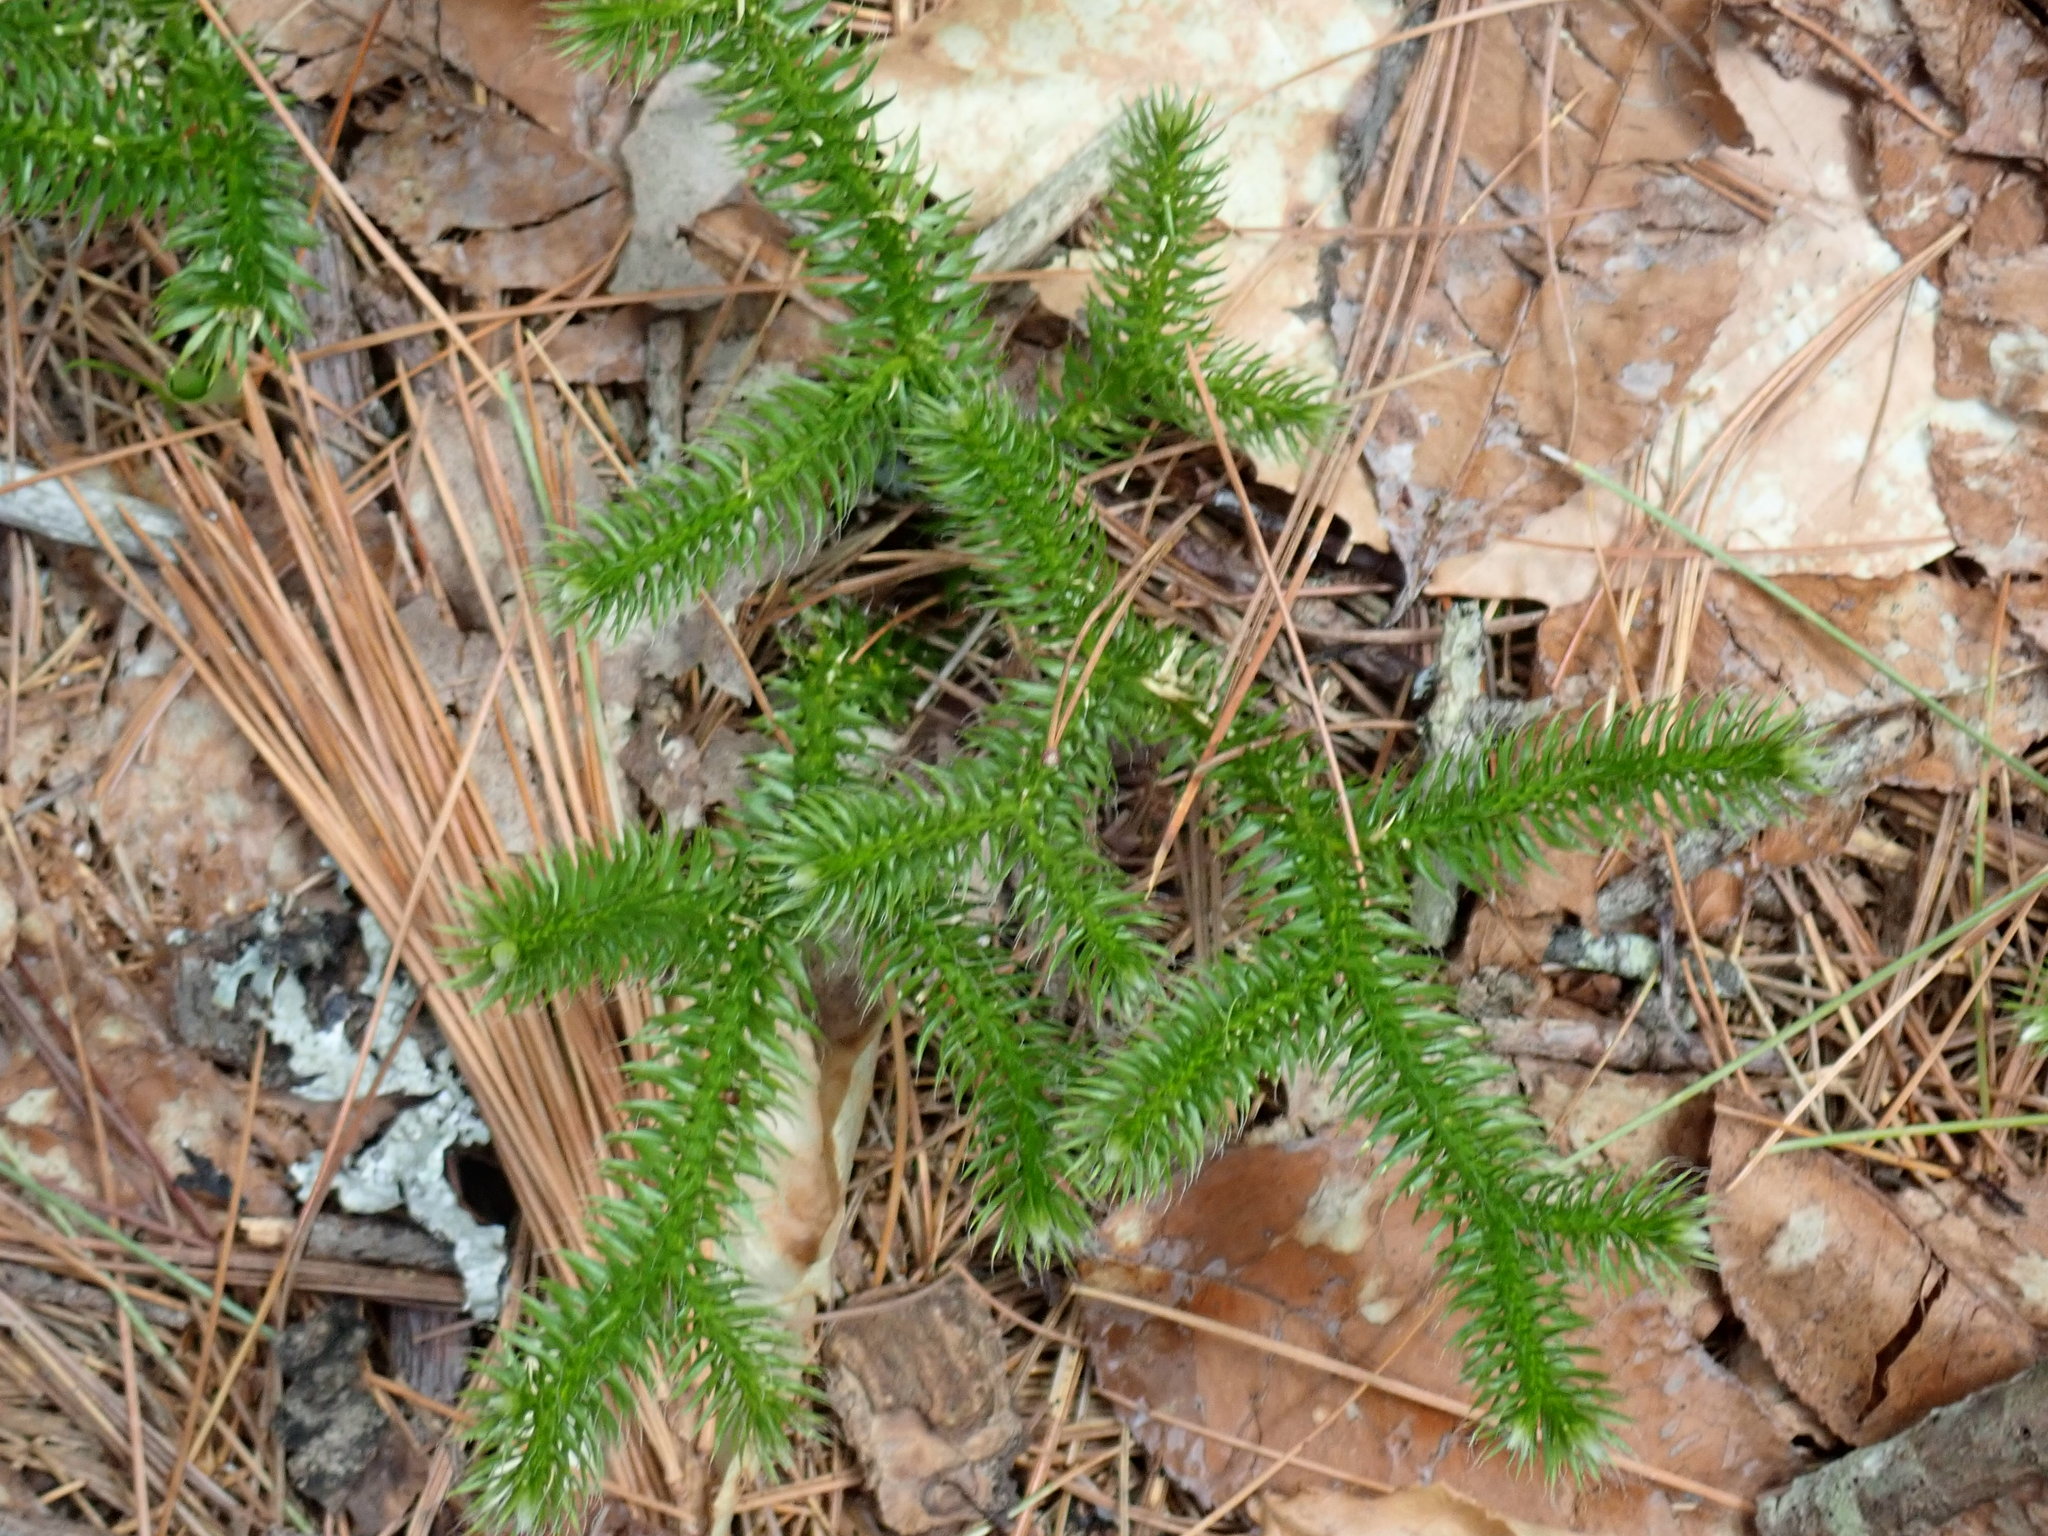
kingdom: Plantae
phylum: Tracheophyta
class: Lycopodiopsida
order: Lycopodiales
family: Lycopodiaceae
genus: Lycopodium
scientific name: Lycopodium clavatum
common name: Stag's-horn clubmoss
